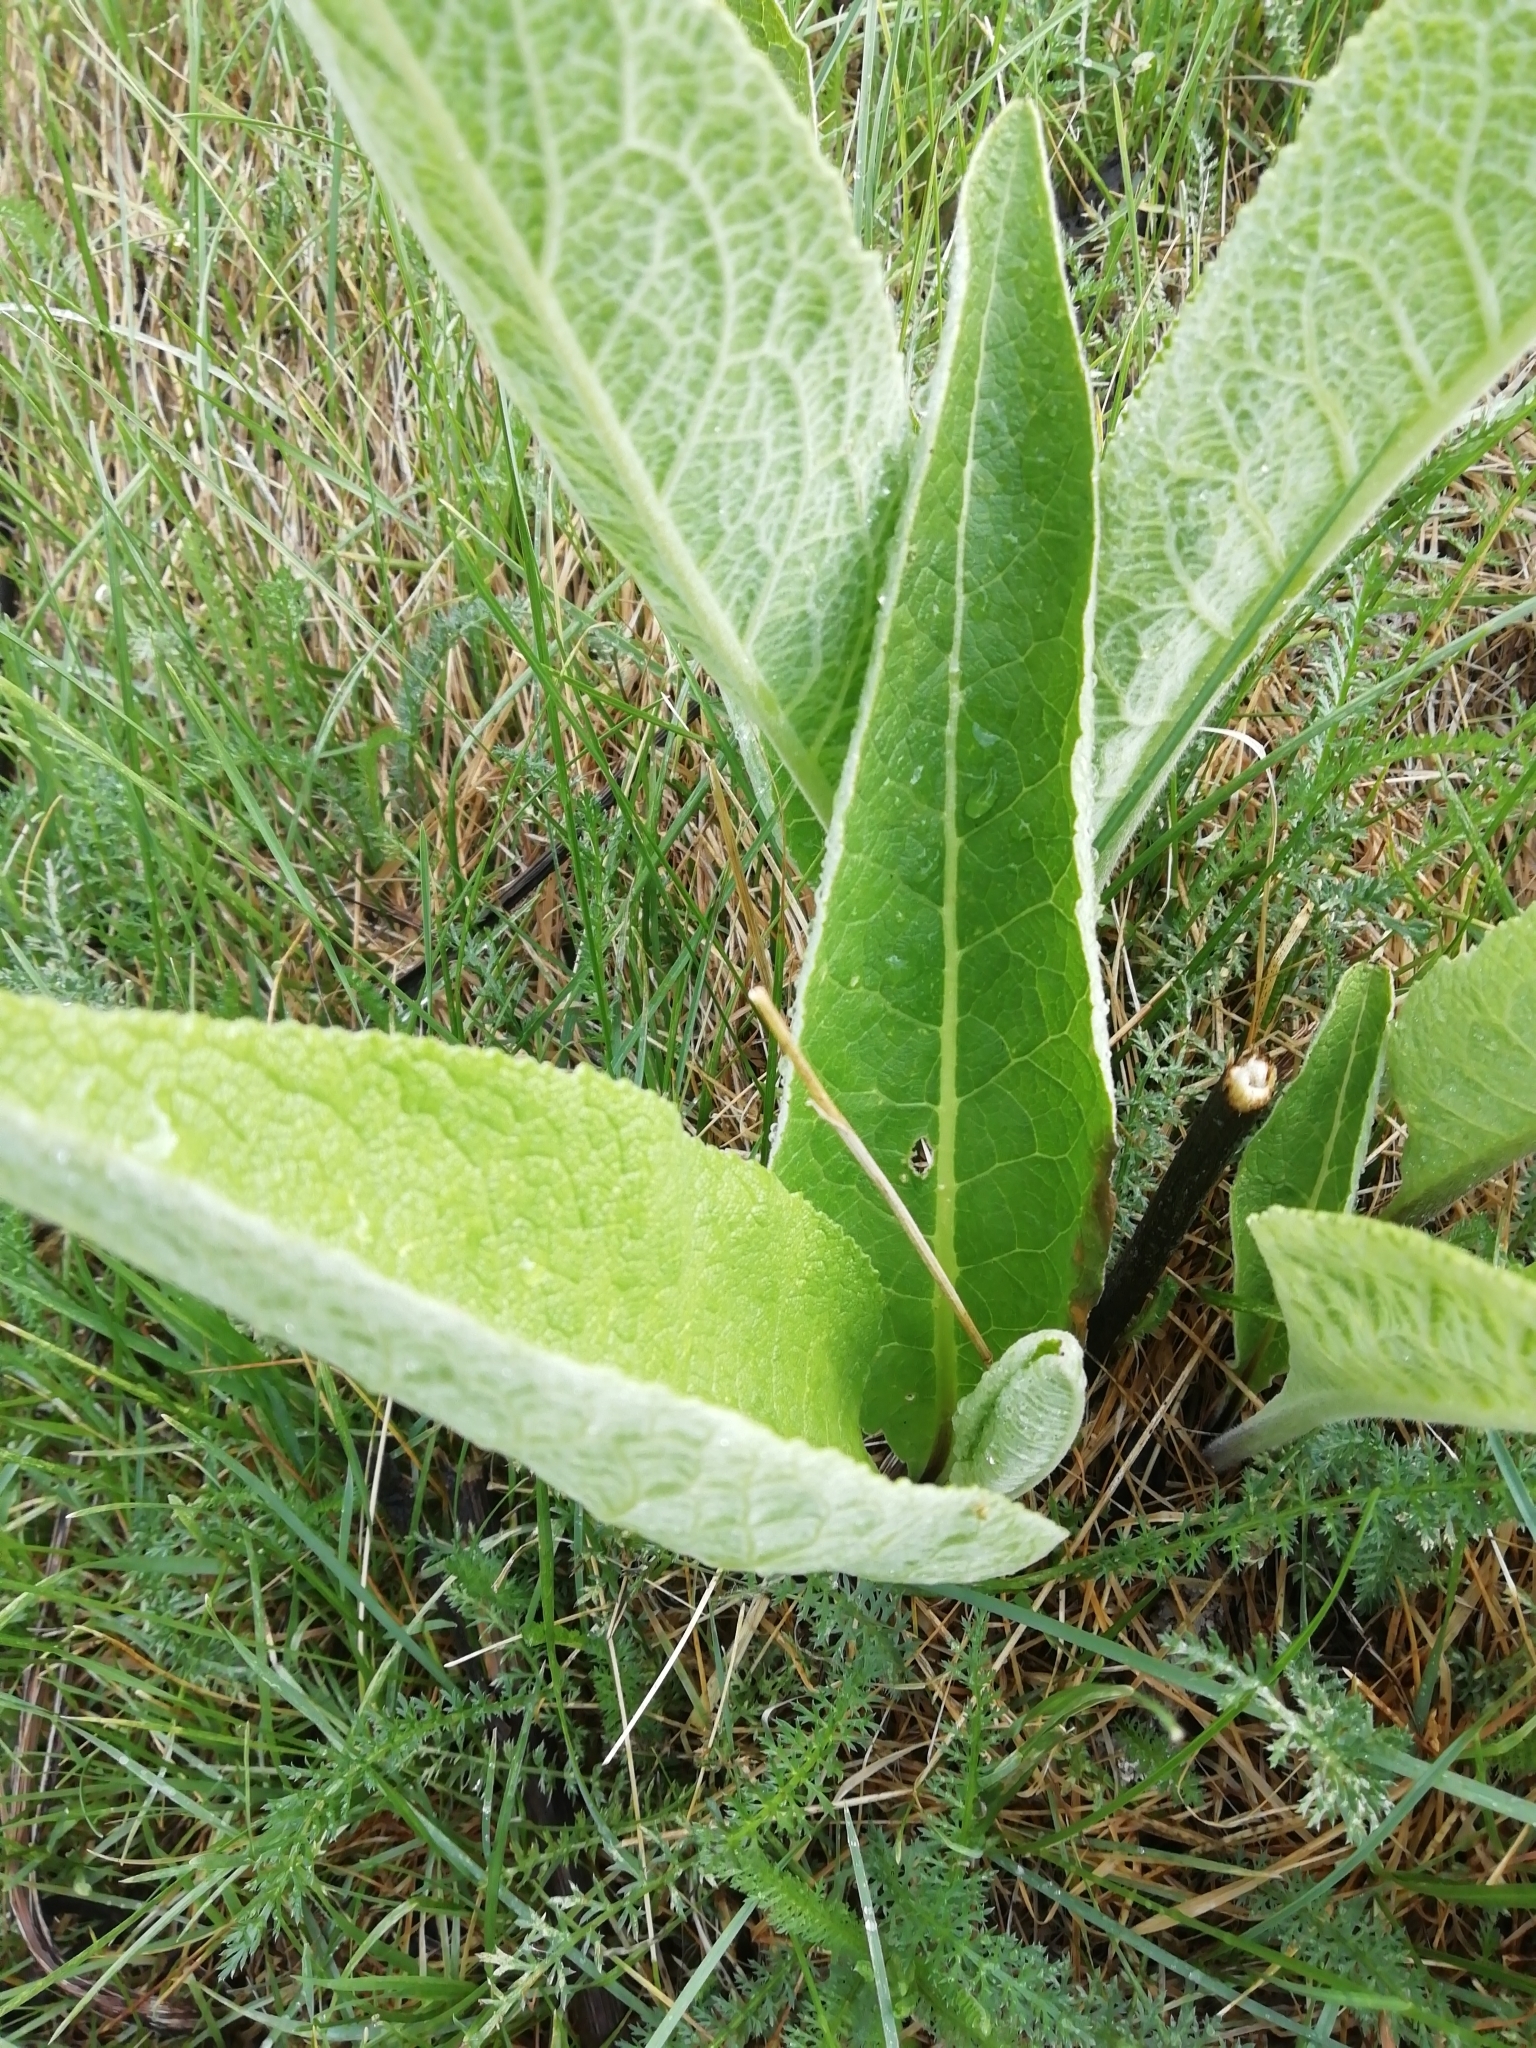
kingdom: Plantae
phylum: Tracheophyta
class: Magnoliopsida
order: Asterales
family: Asteraceae
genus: Inula
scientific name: Inula helenium
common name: Elecampane
